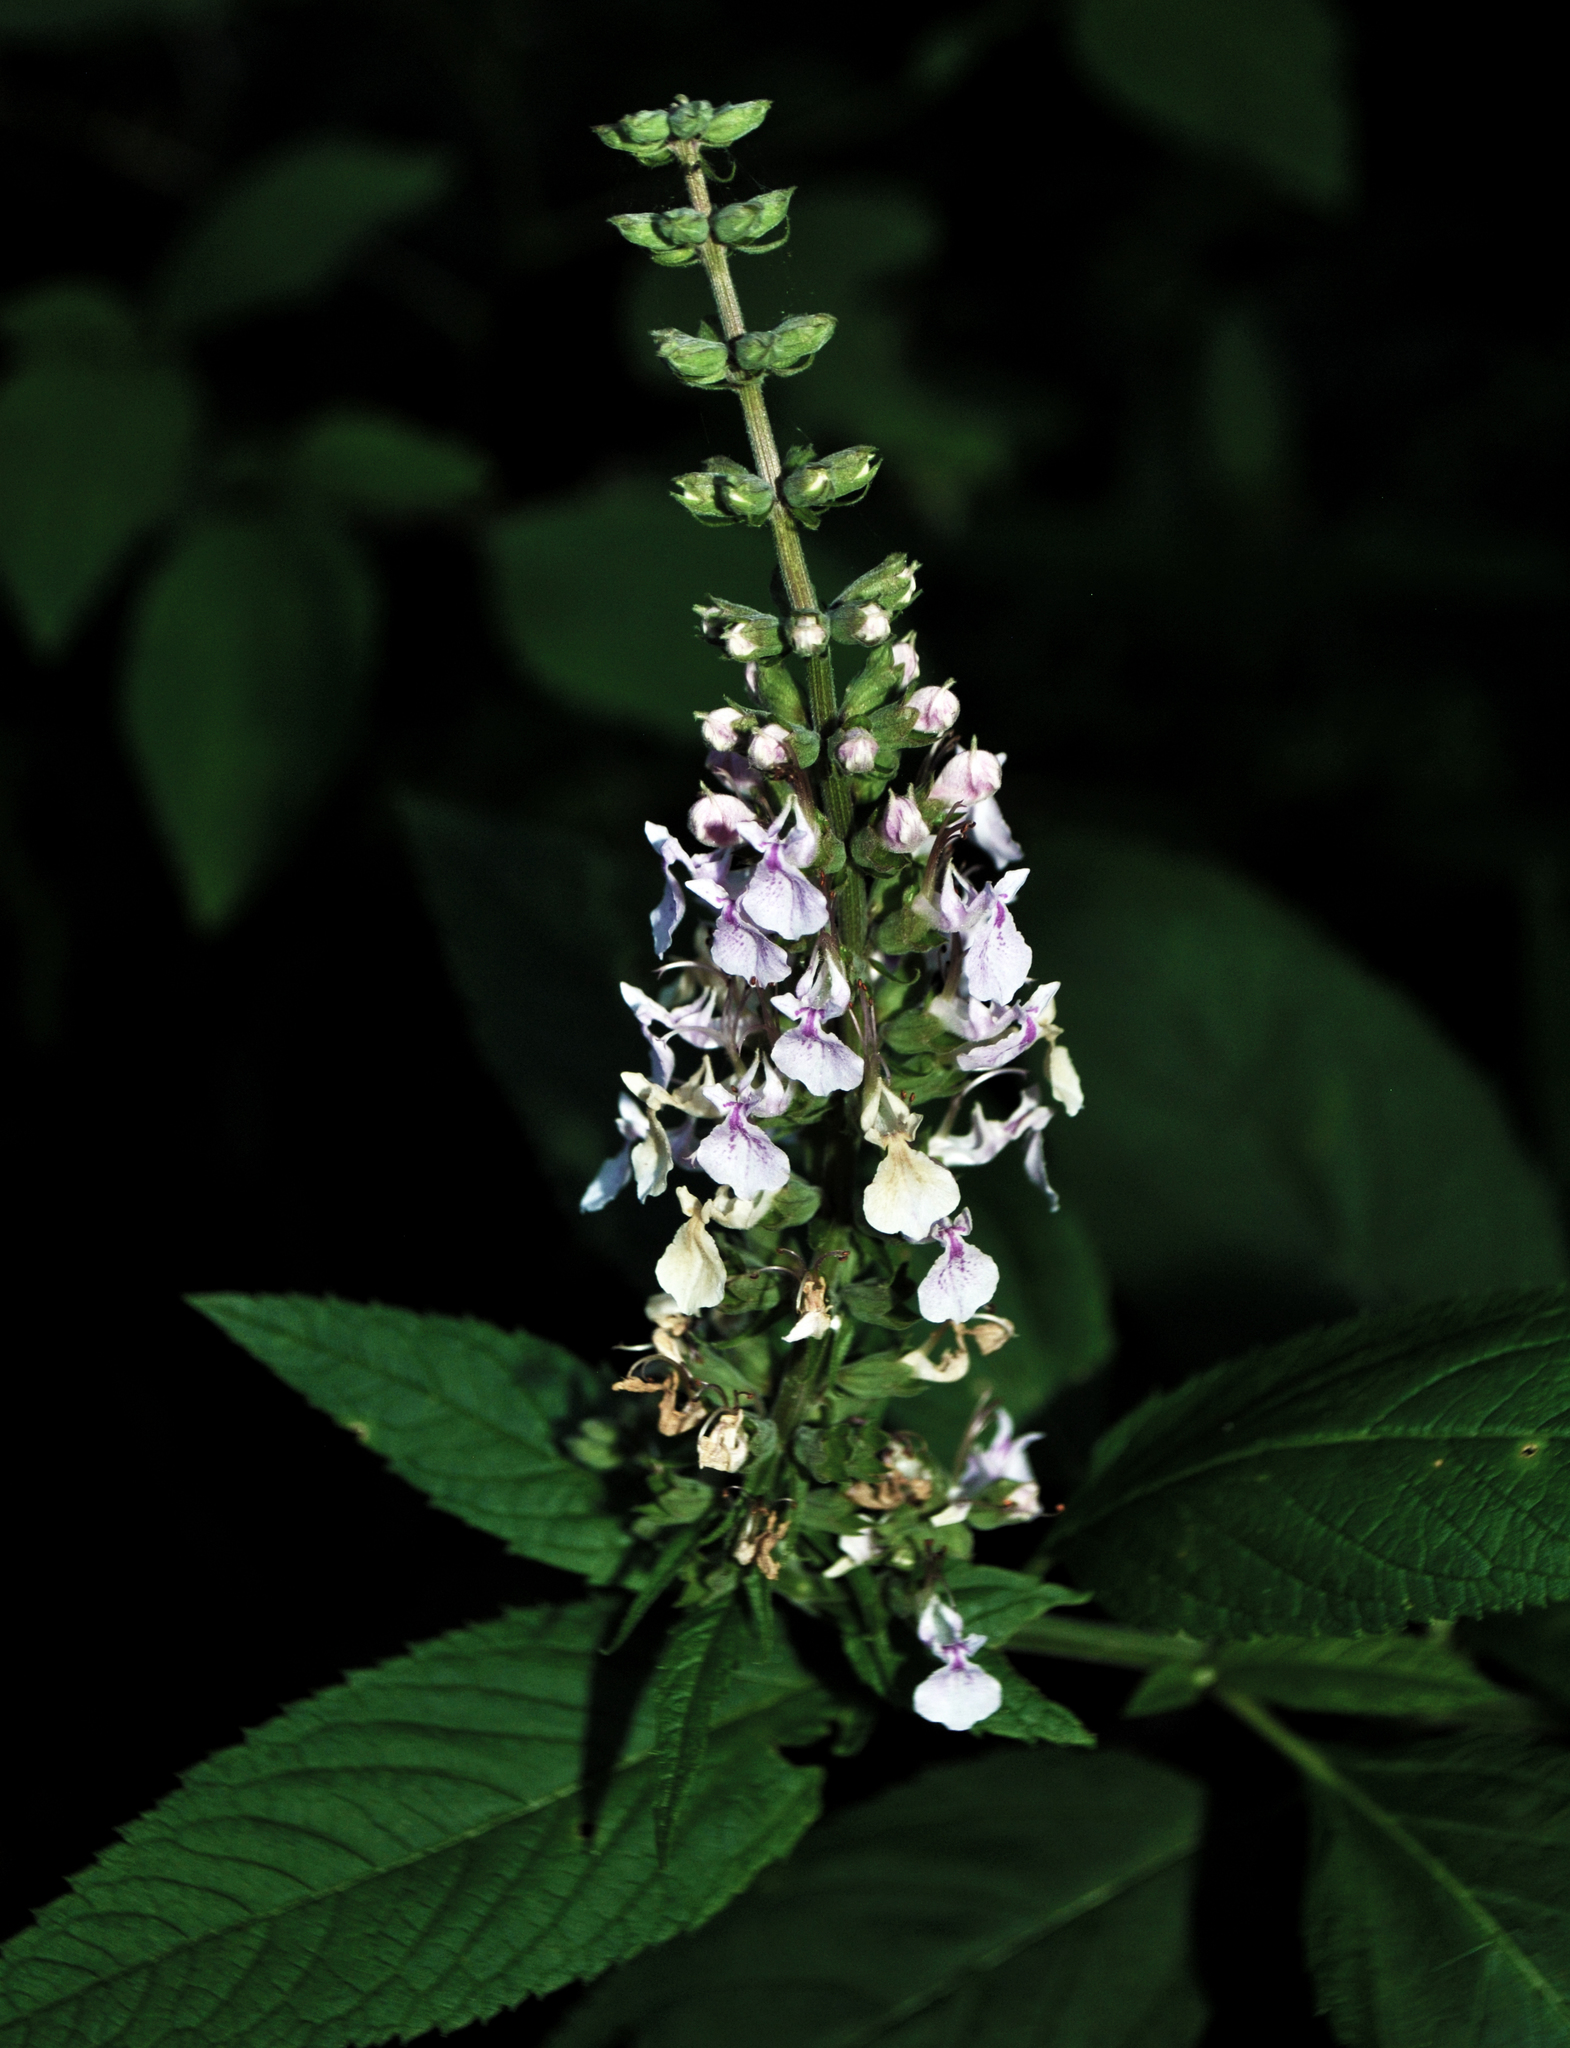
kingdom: Plantae
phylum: Tracheophyta
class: Magnoliopsida
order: Lamiales
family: Lamiaceae
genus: Teucrium
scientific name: Teucrium canadense
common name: American germander
